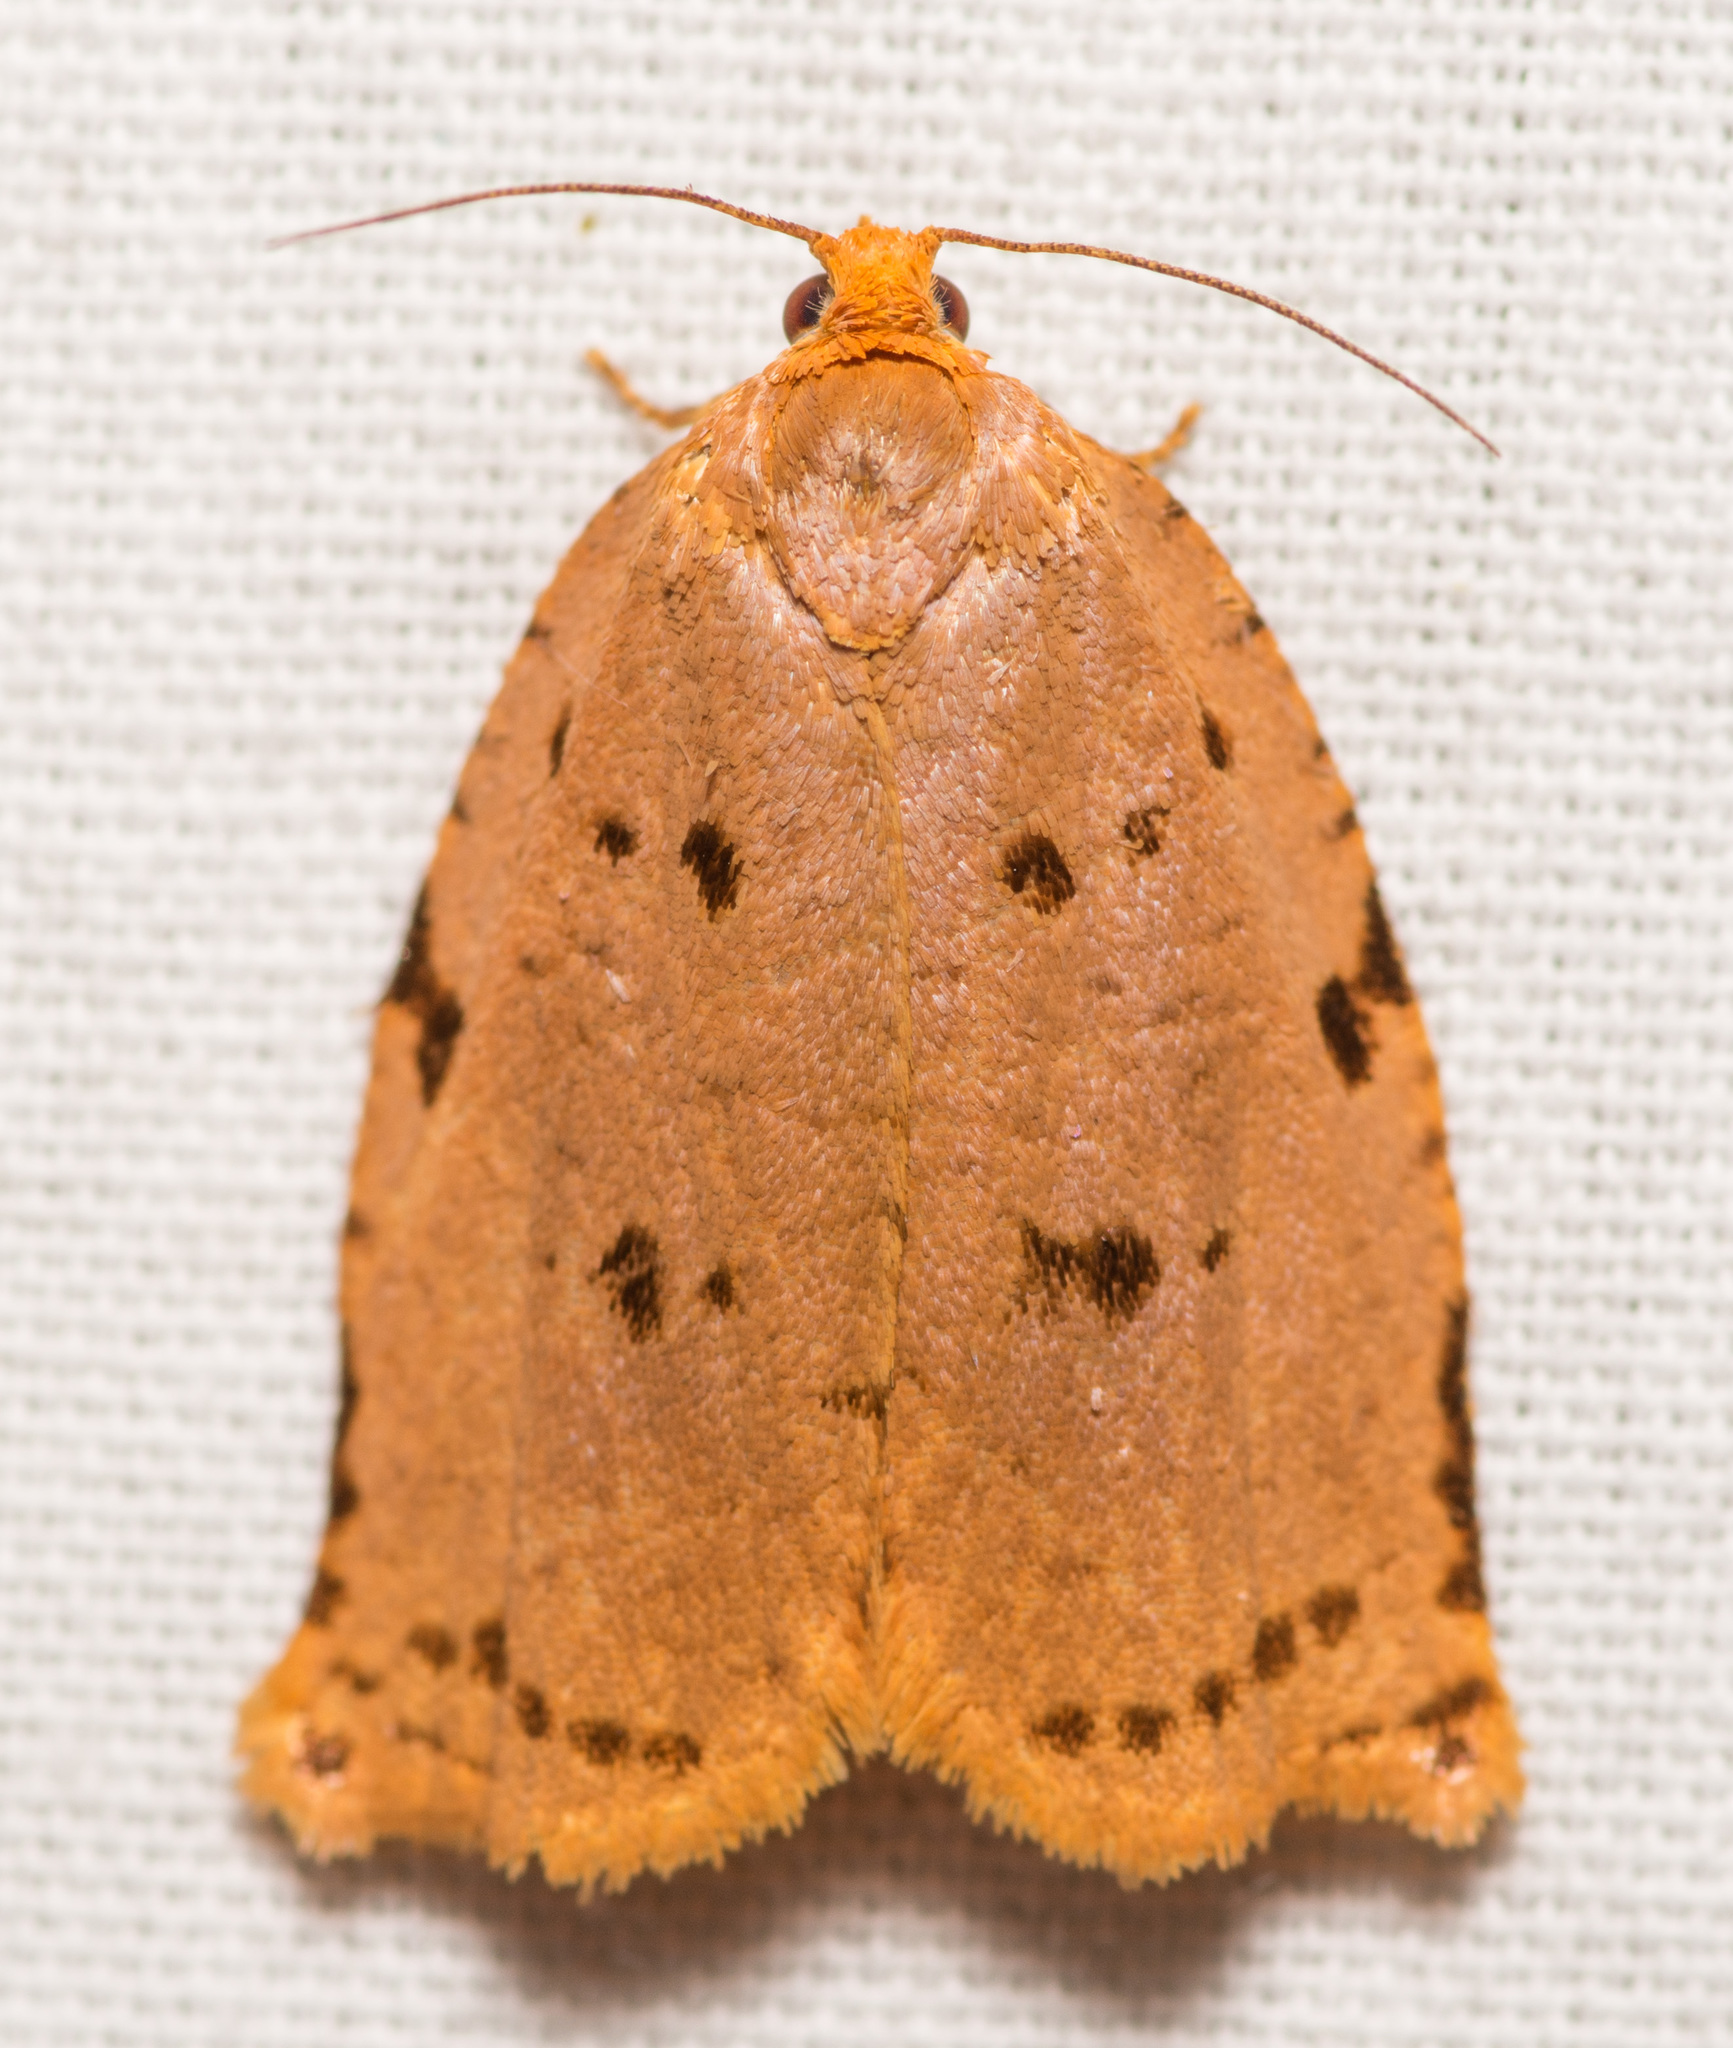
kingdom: Animalia
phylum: Arthropoda
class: Insecta
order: Lepidoptera
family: Tortricidae
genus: Archips
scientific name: Archips rileyana
